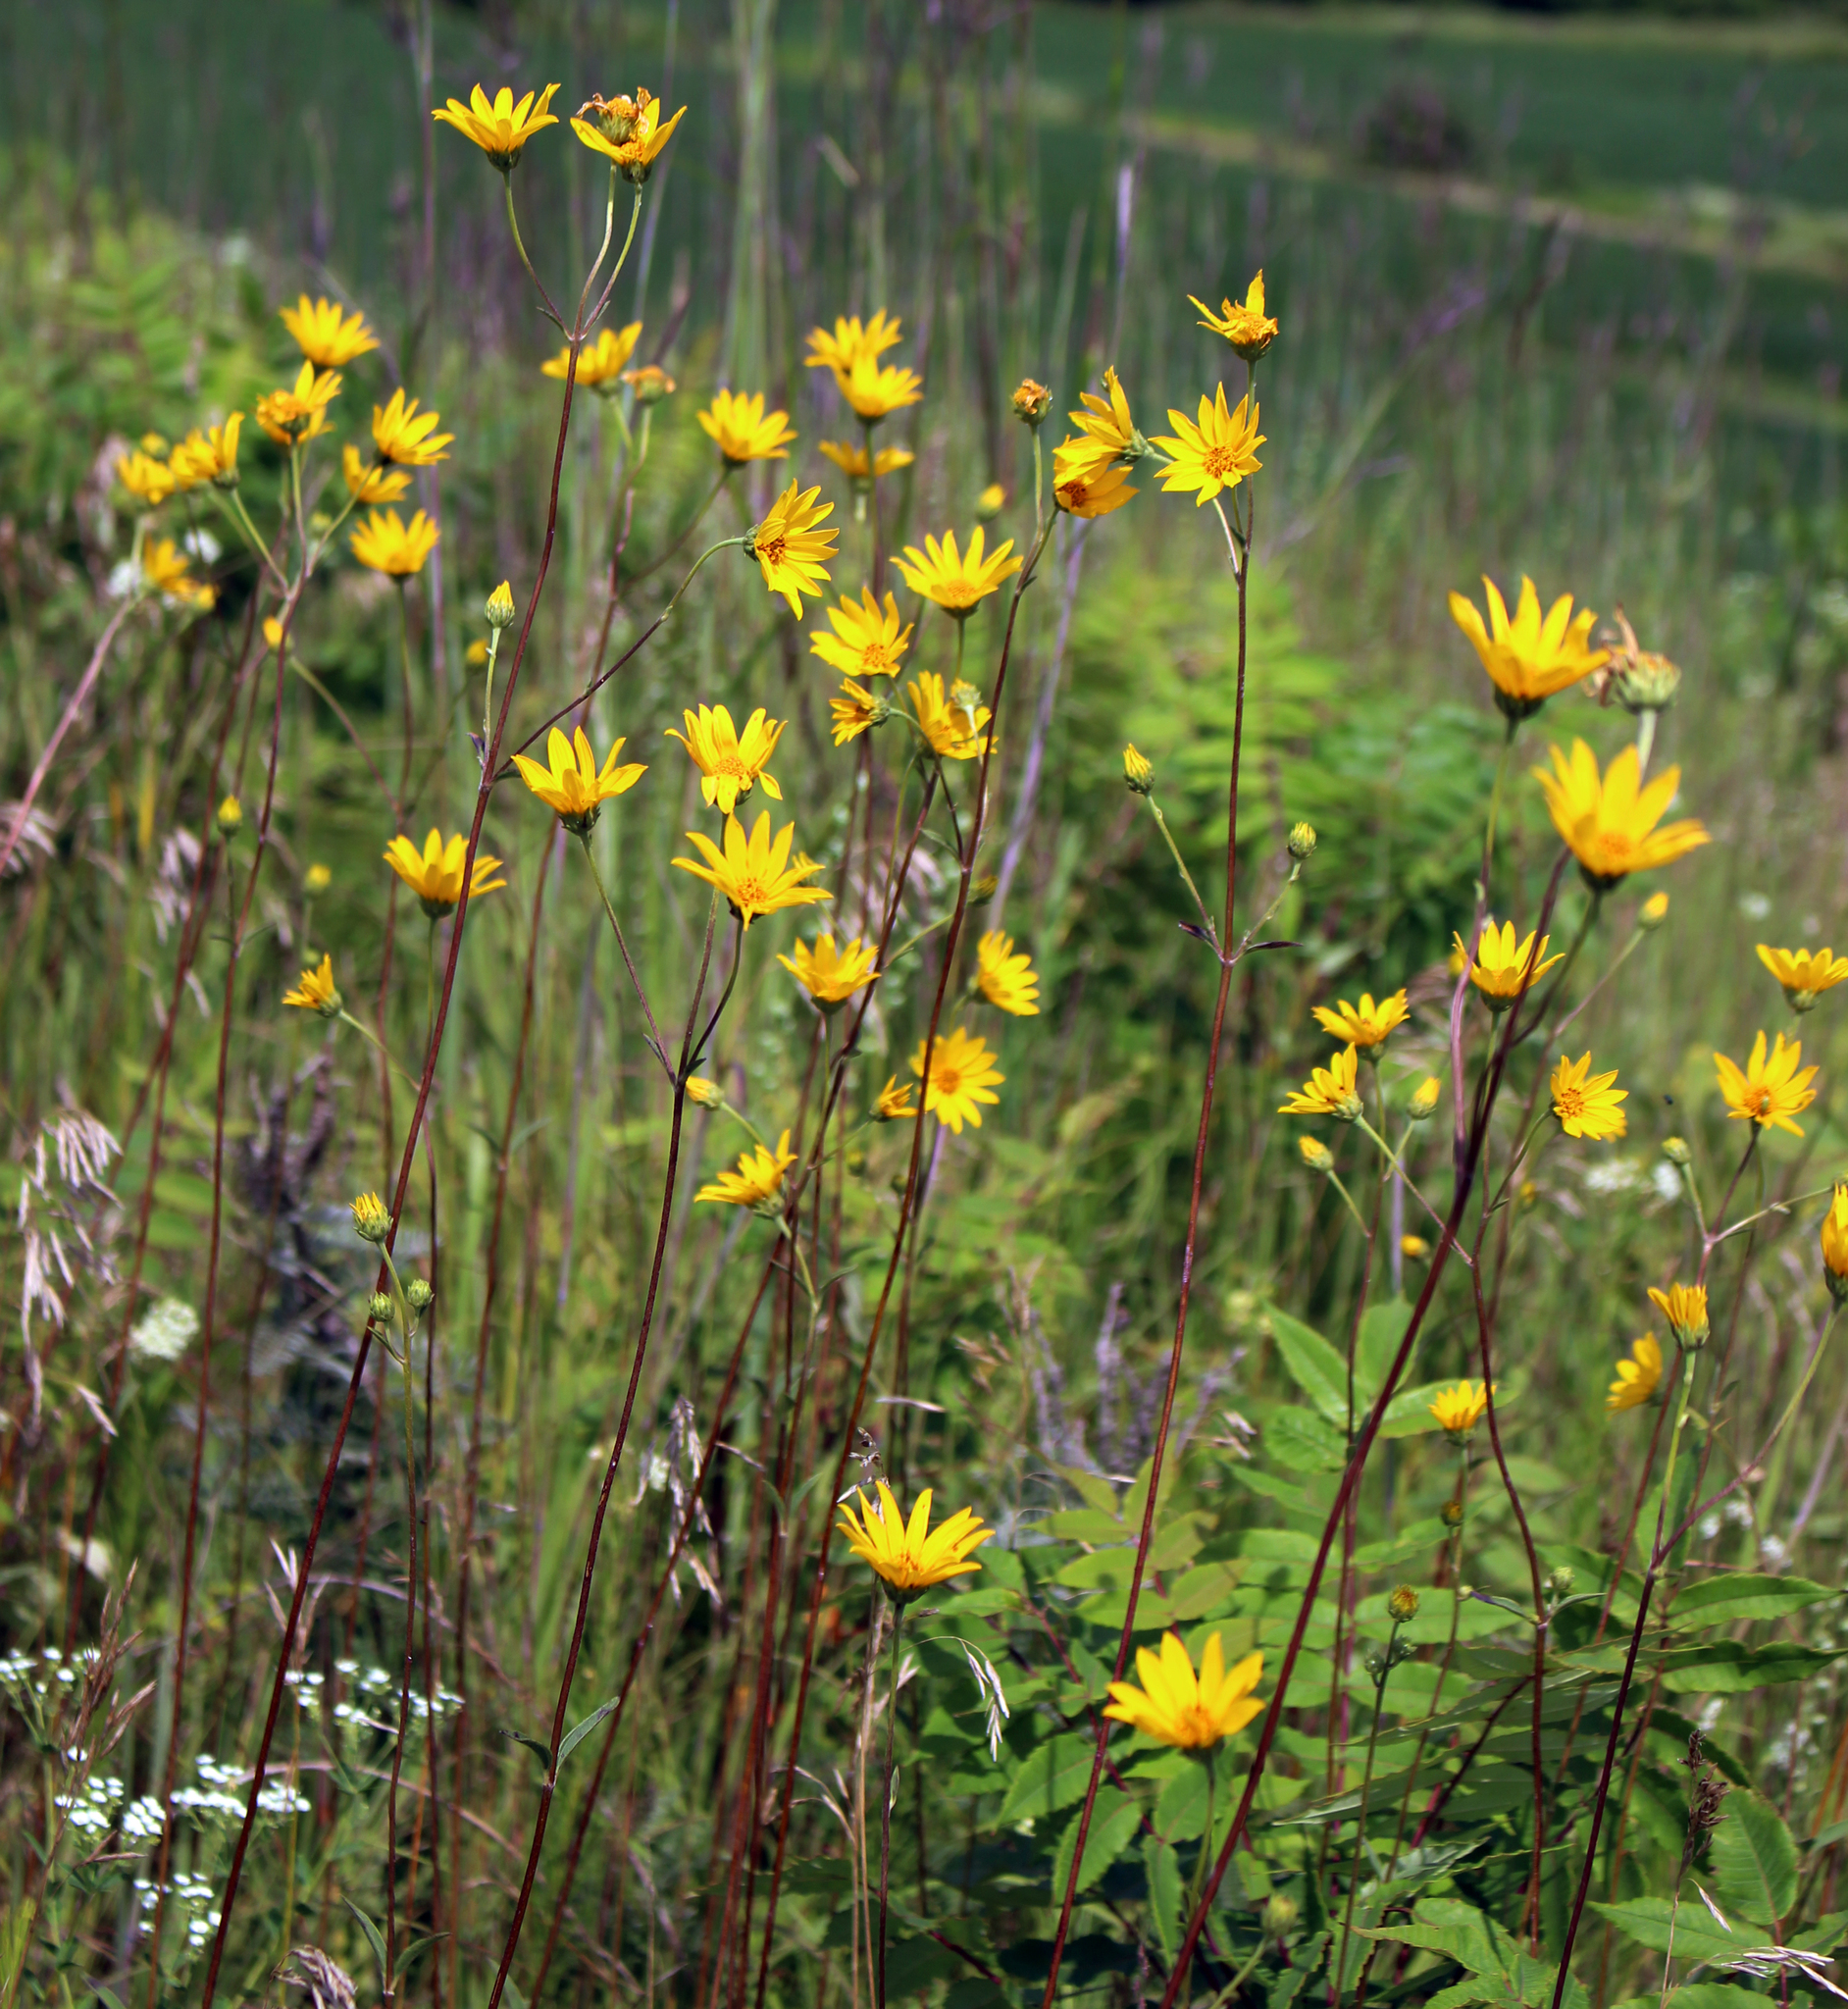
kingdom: Plantae
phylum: Tracheophyta
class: Magnoliopsida
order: Asterales
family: Asteraceae
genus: Helianthus
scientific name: Helianthus occidentalis
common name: Western sunflower
